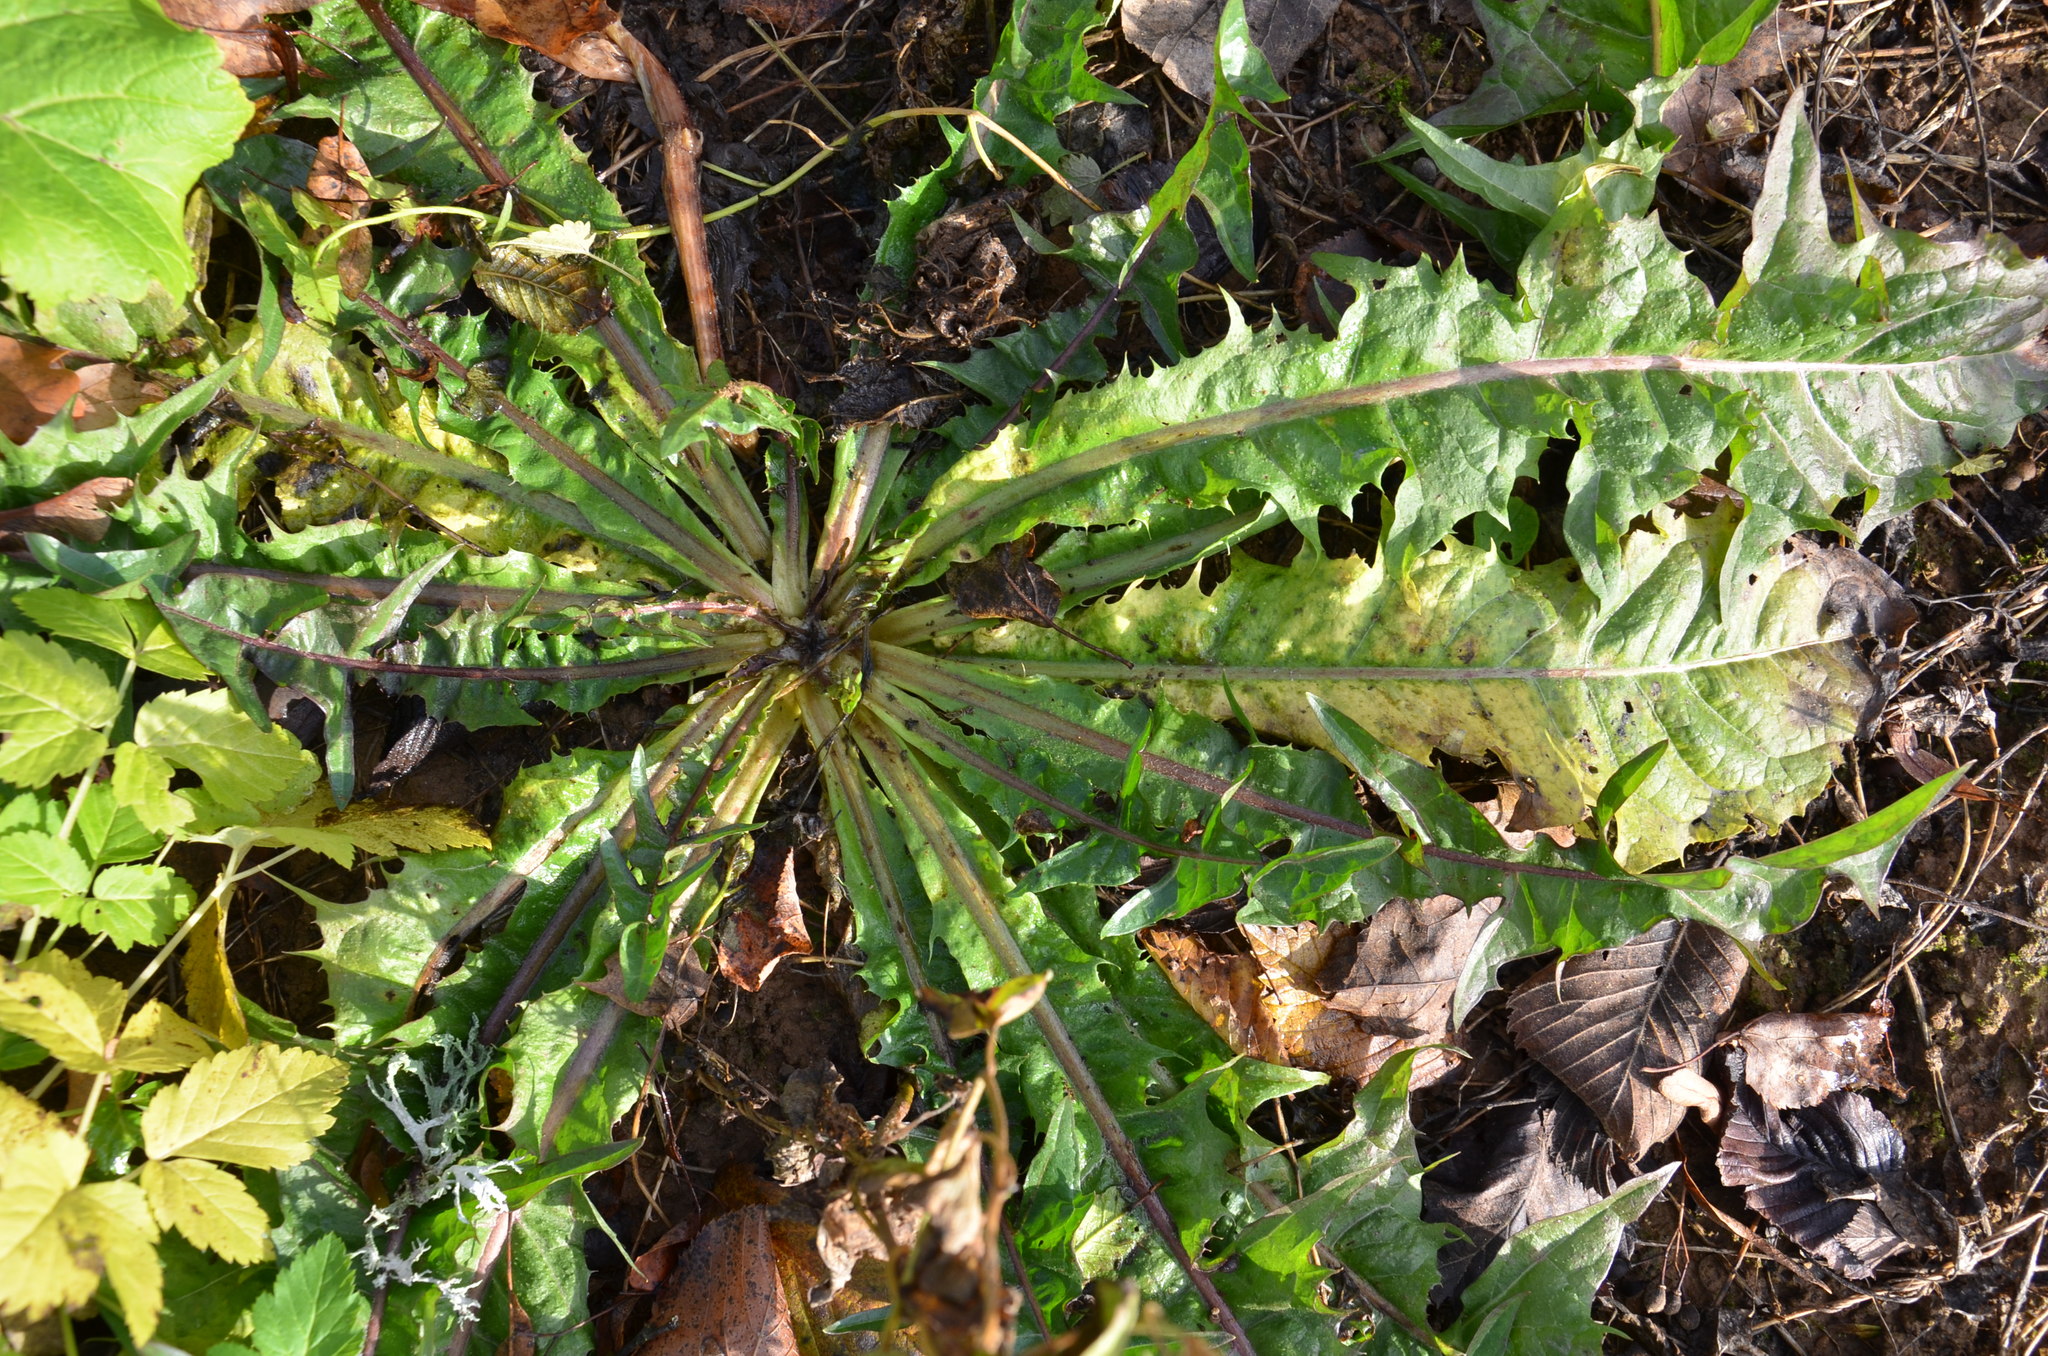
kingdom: Plantae
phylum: Tracheophyta
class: Magnoliopsida
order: Asterales
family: Asteraceae
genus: Taraxacum
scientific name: Taraxacum officinale
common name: Common dandelion
